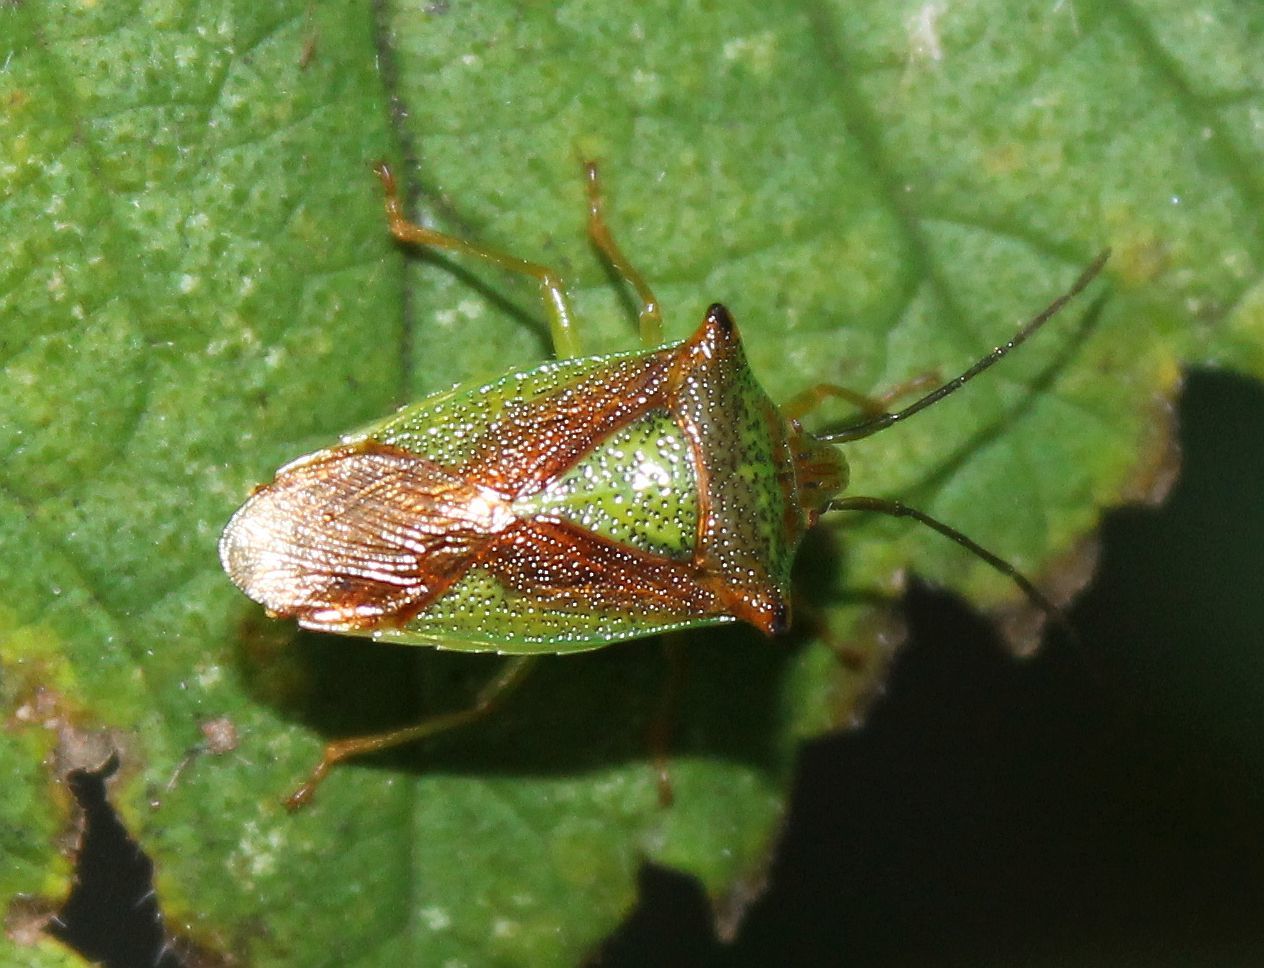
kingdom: Animalia
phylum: Arthropoda
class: Insecta
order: Hemiptera
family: Acanthosomatidae
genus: Acanthosoma
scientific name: Acanthosoma haemorrhoidale
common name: Hawthorn shieldbug
